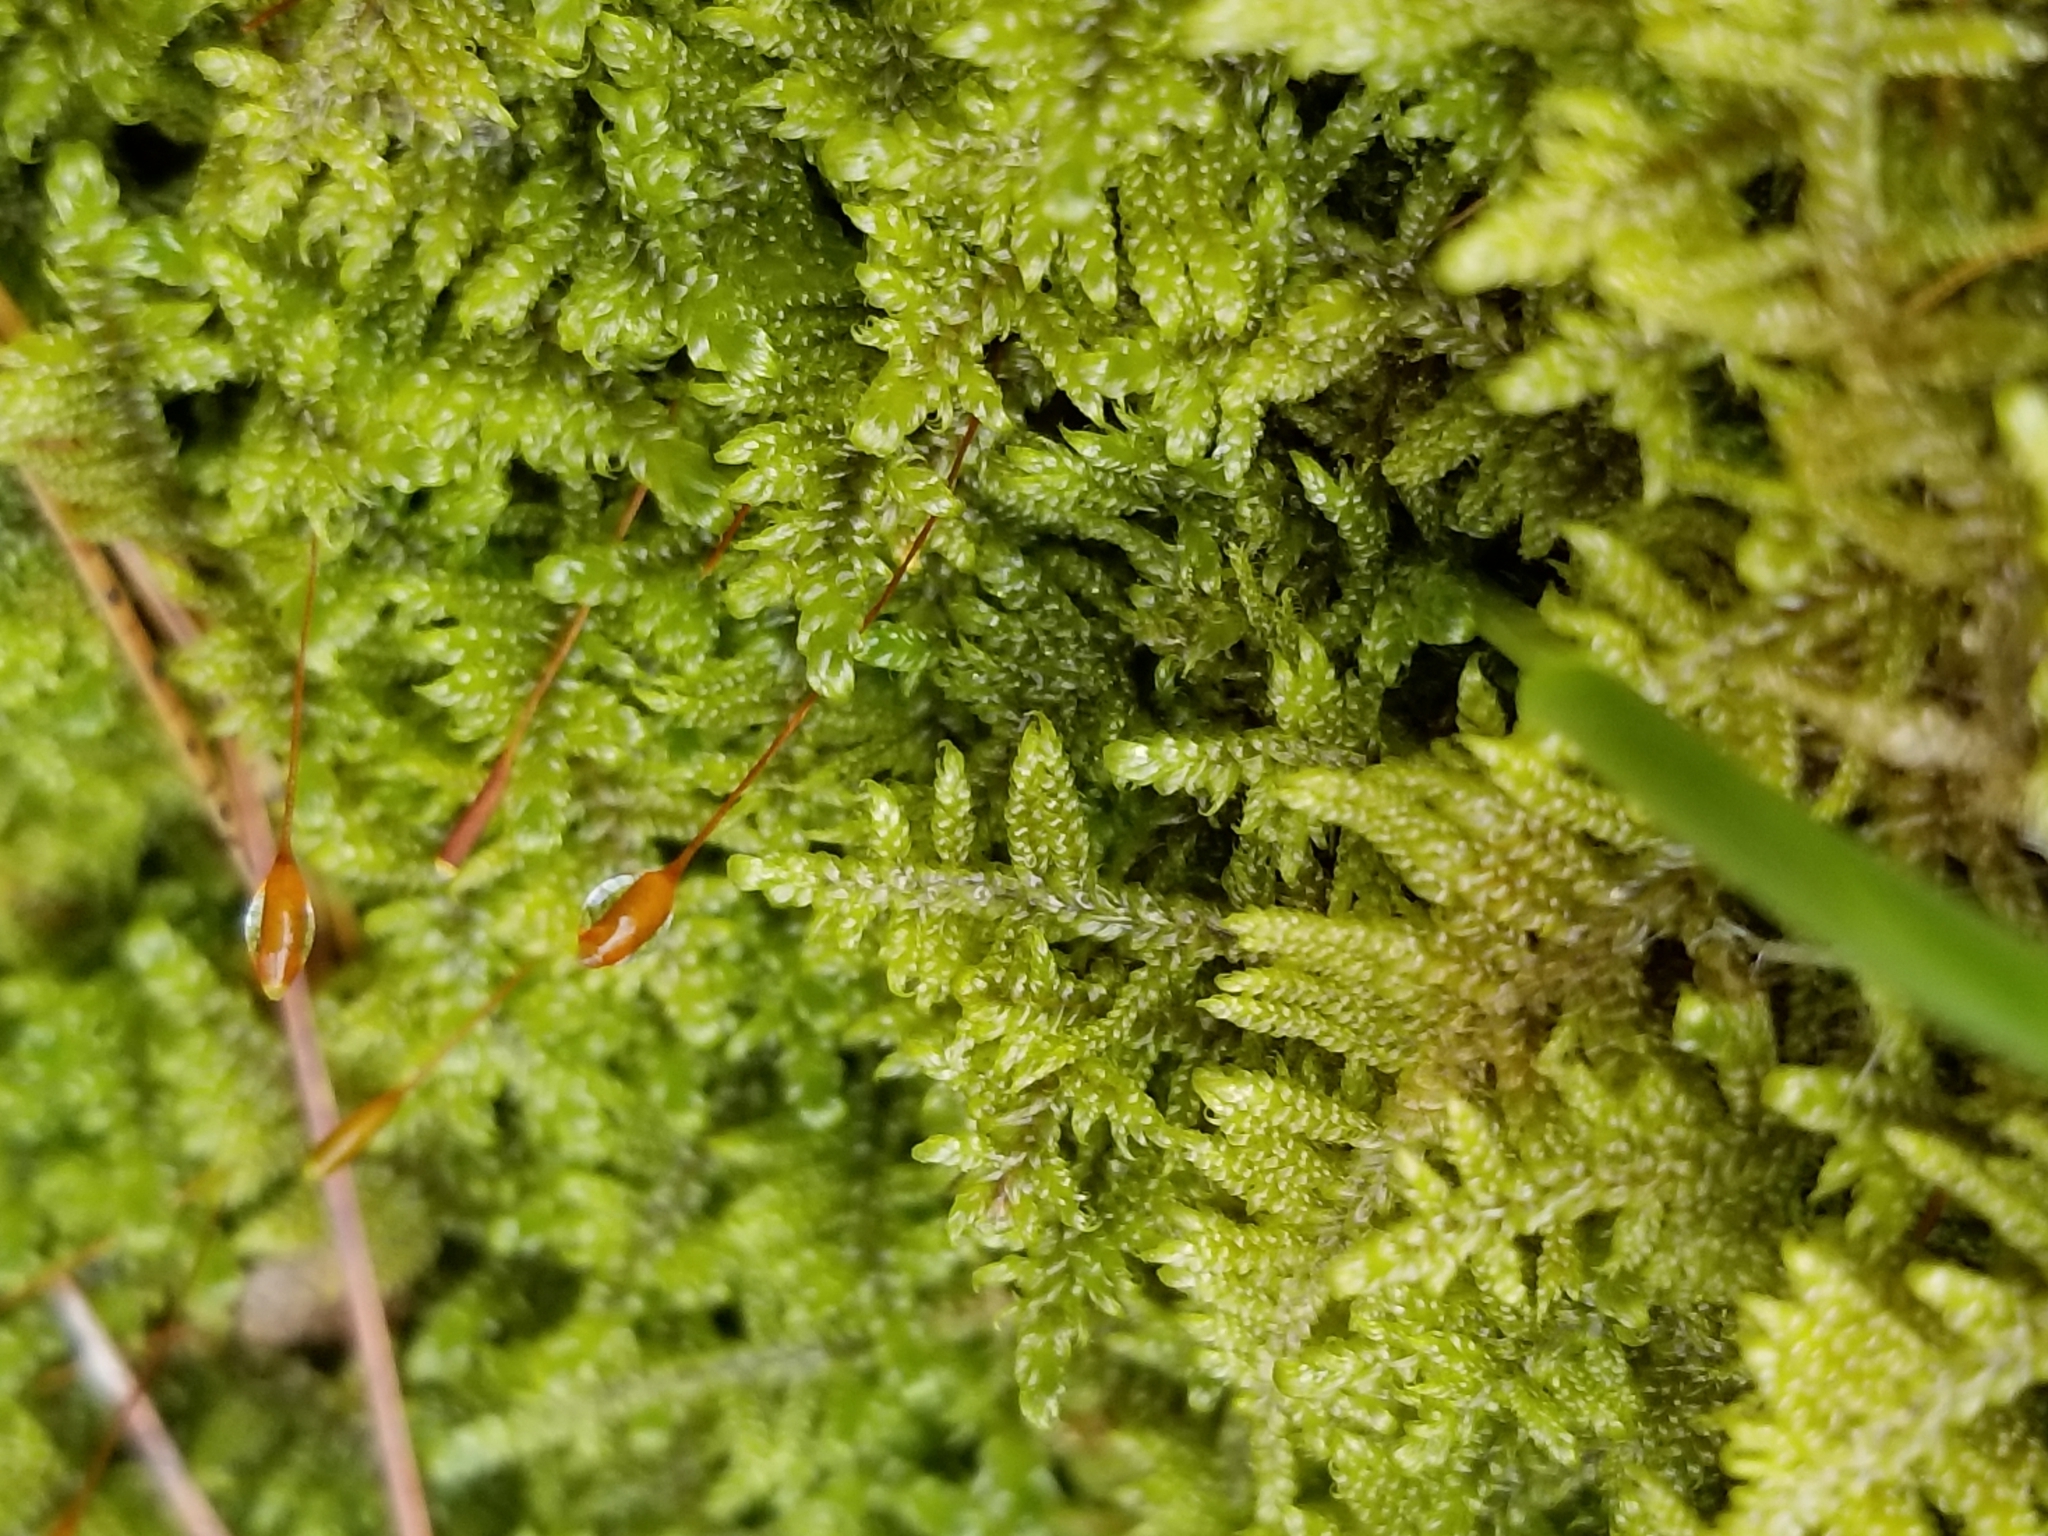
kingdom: Plantae
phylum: Bryophyta
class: Bryopsida
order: Hypnales
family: Callicladiaceae
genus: Callicladium
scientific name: Callicladium imponens
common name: Brocade moss
